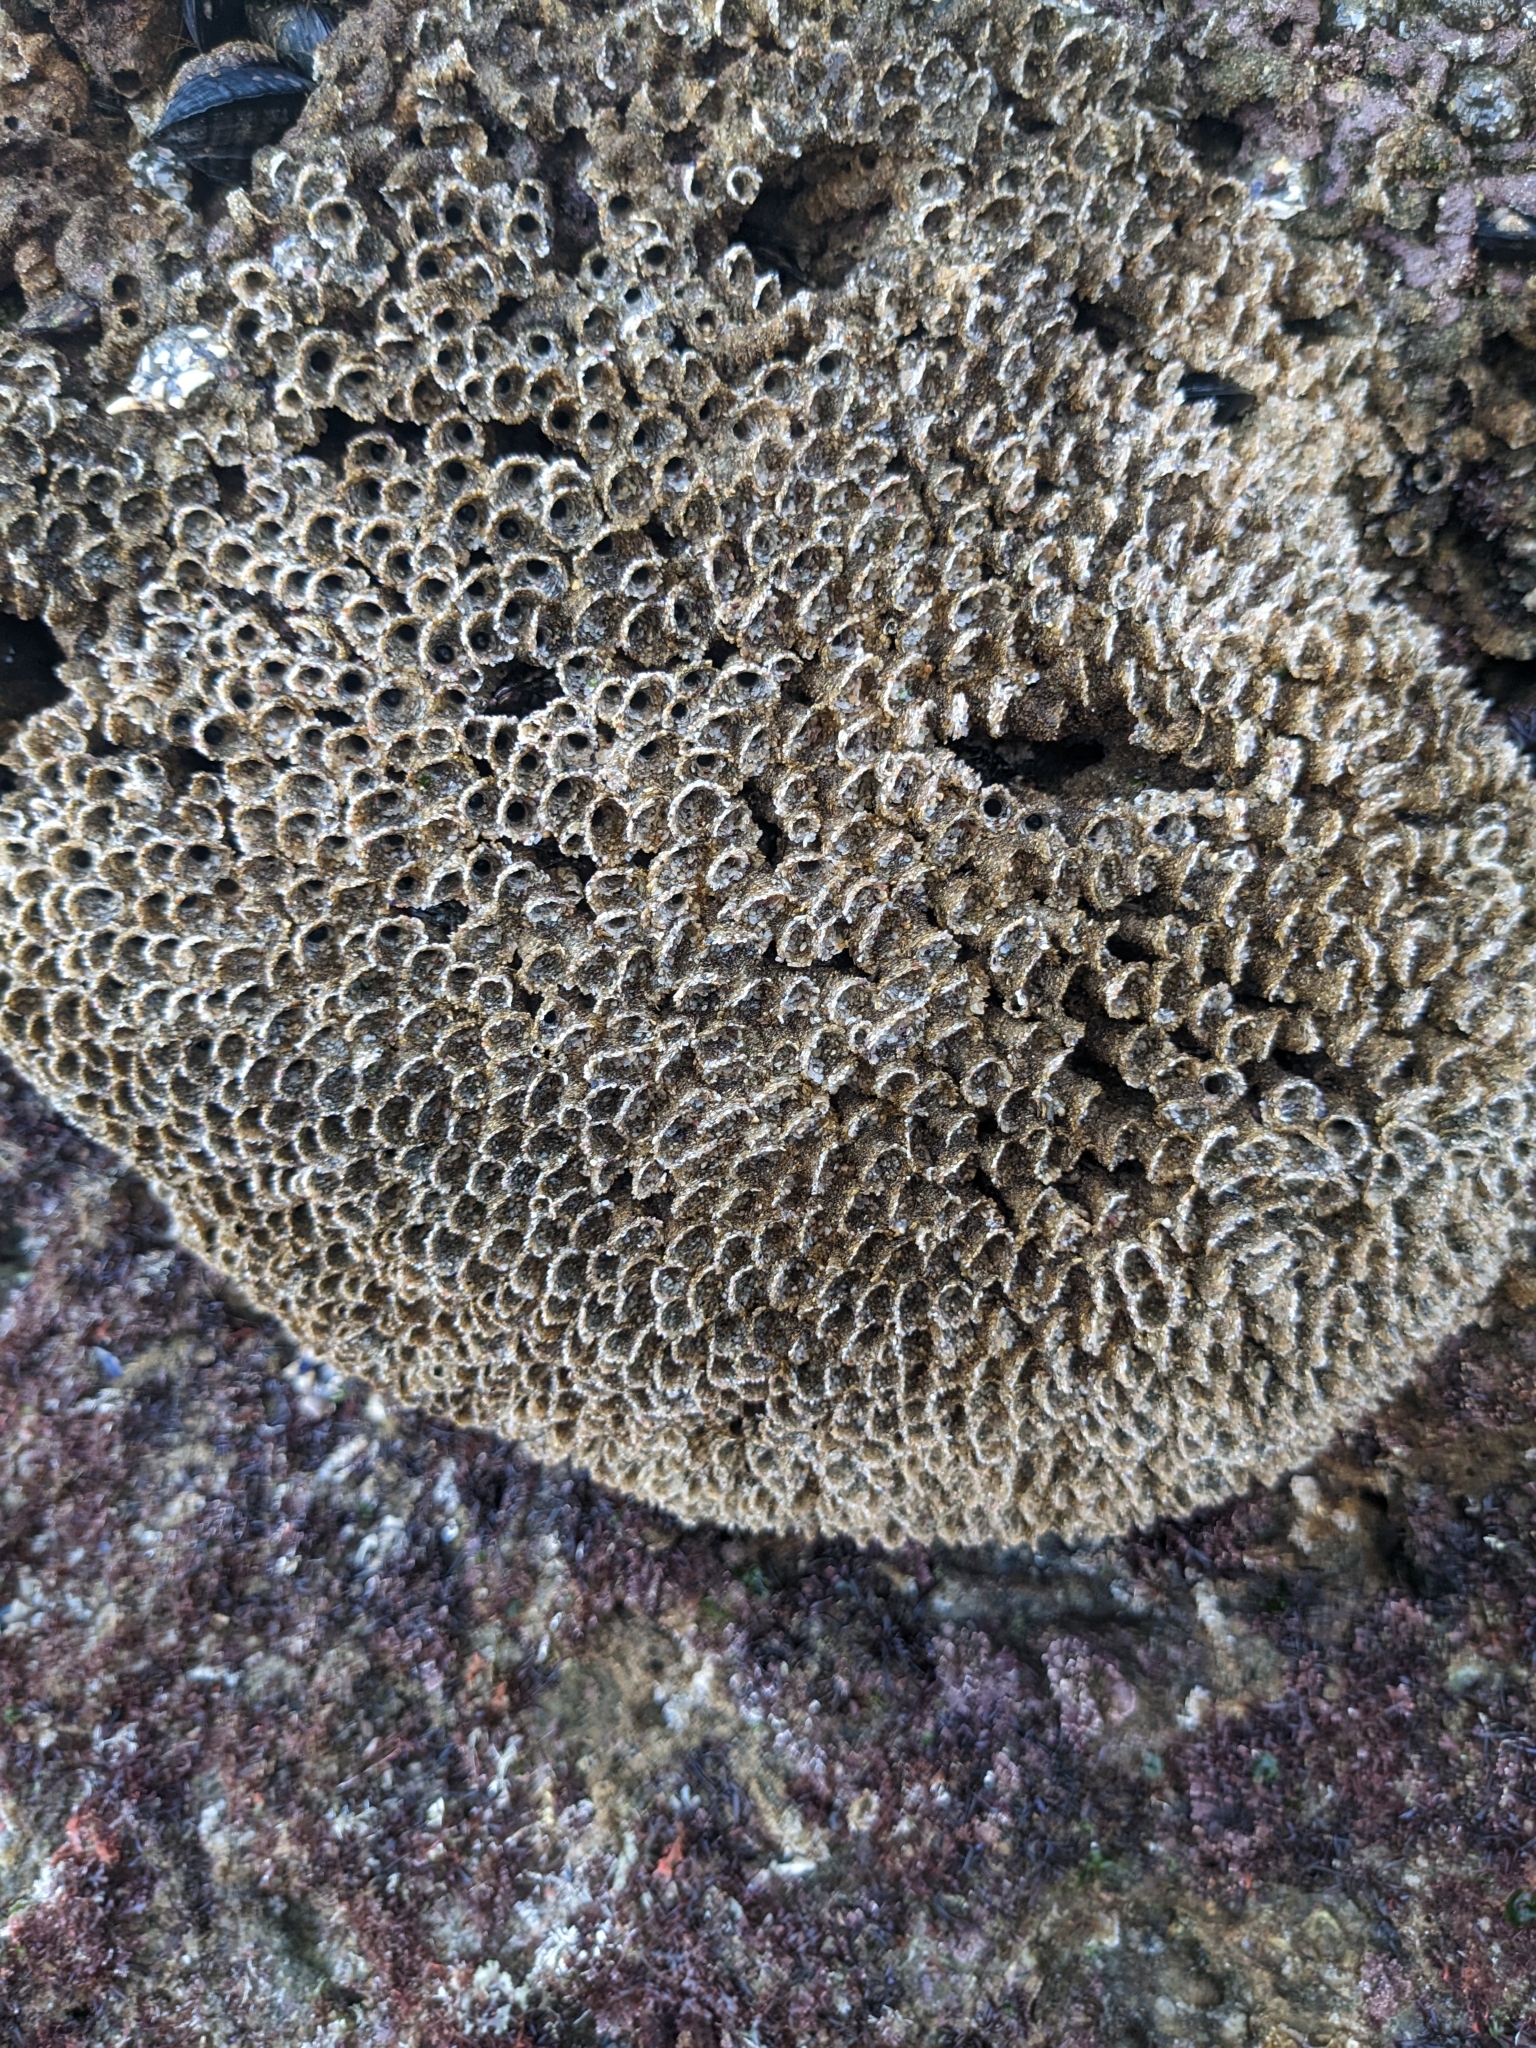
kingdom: Animalia
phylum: Annelida
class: Polychaeta
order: Sabellida
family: Sabellariidae
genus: Phragmatopoma
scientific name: Phragmatopoma californica
